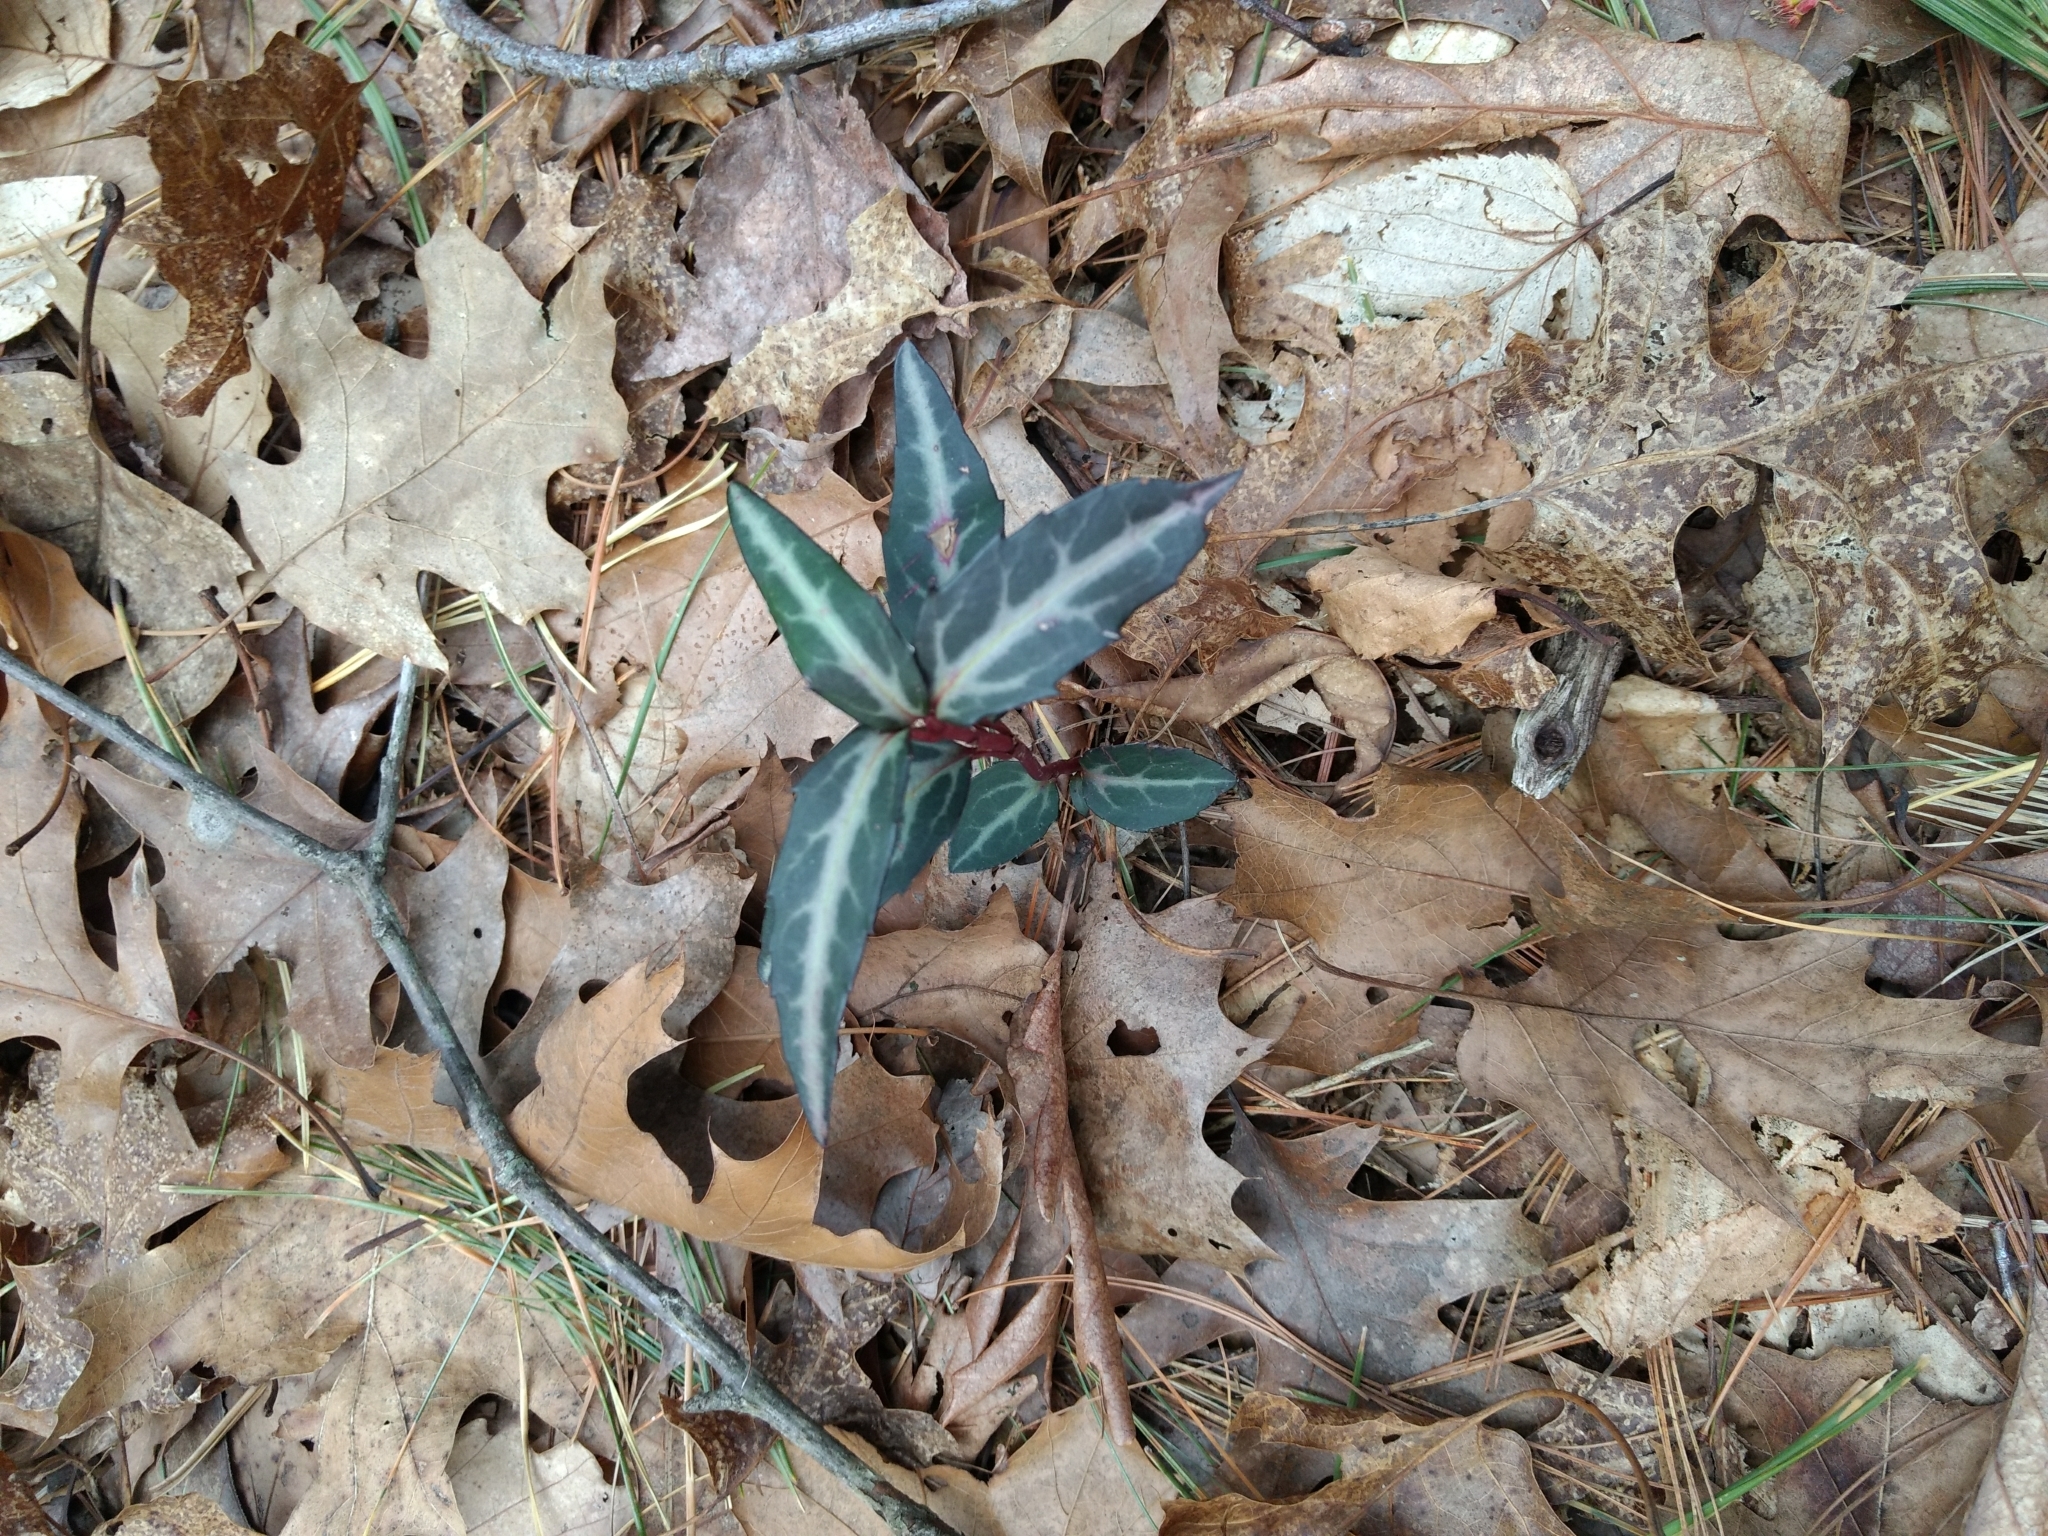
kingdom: Plantae
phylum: Tracheophyta
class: Magnoliopsida
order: Ericales
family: Ericaceae
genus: Chimaphila
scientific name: Chimaphila maculata
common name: Spotted pipsissewa
